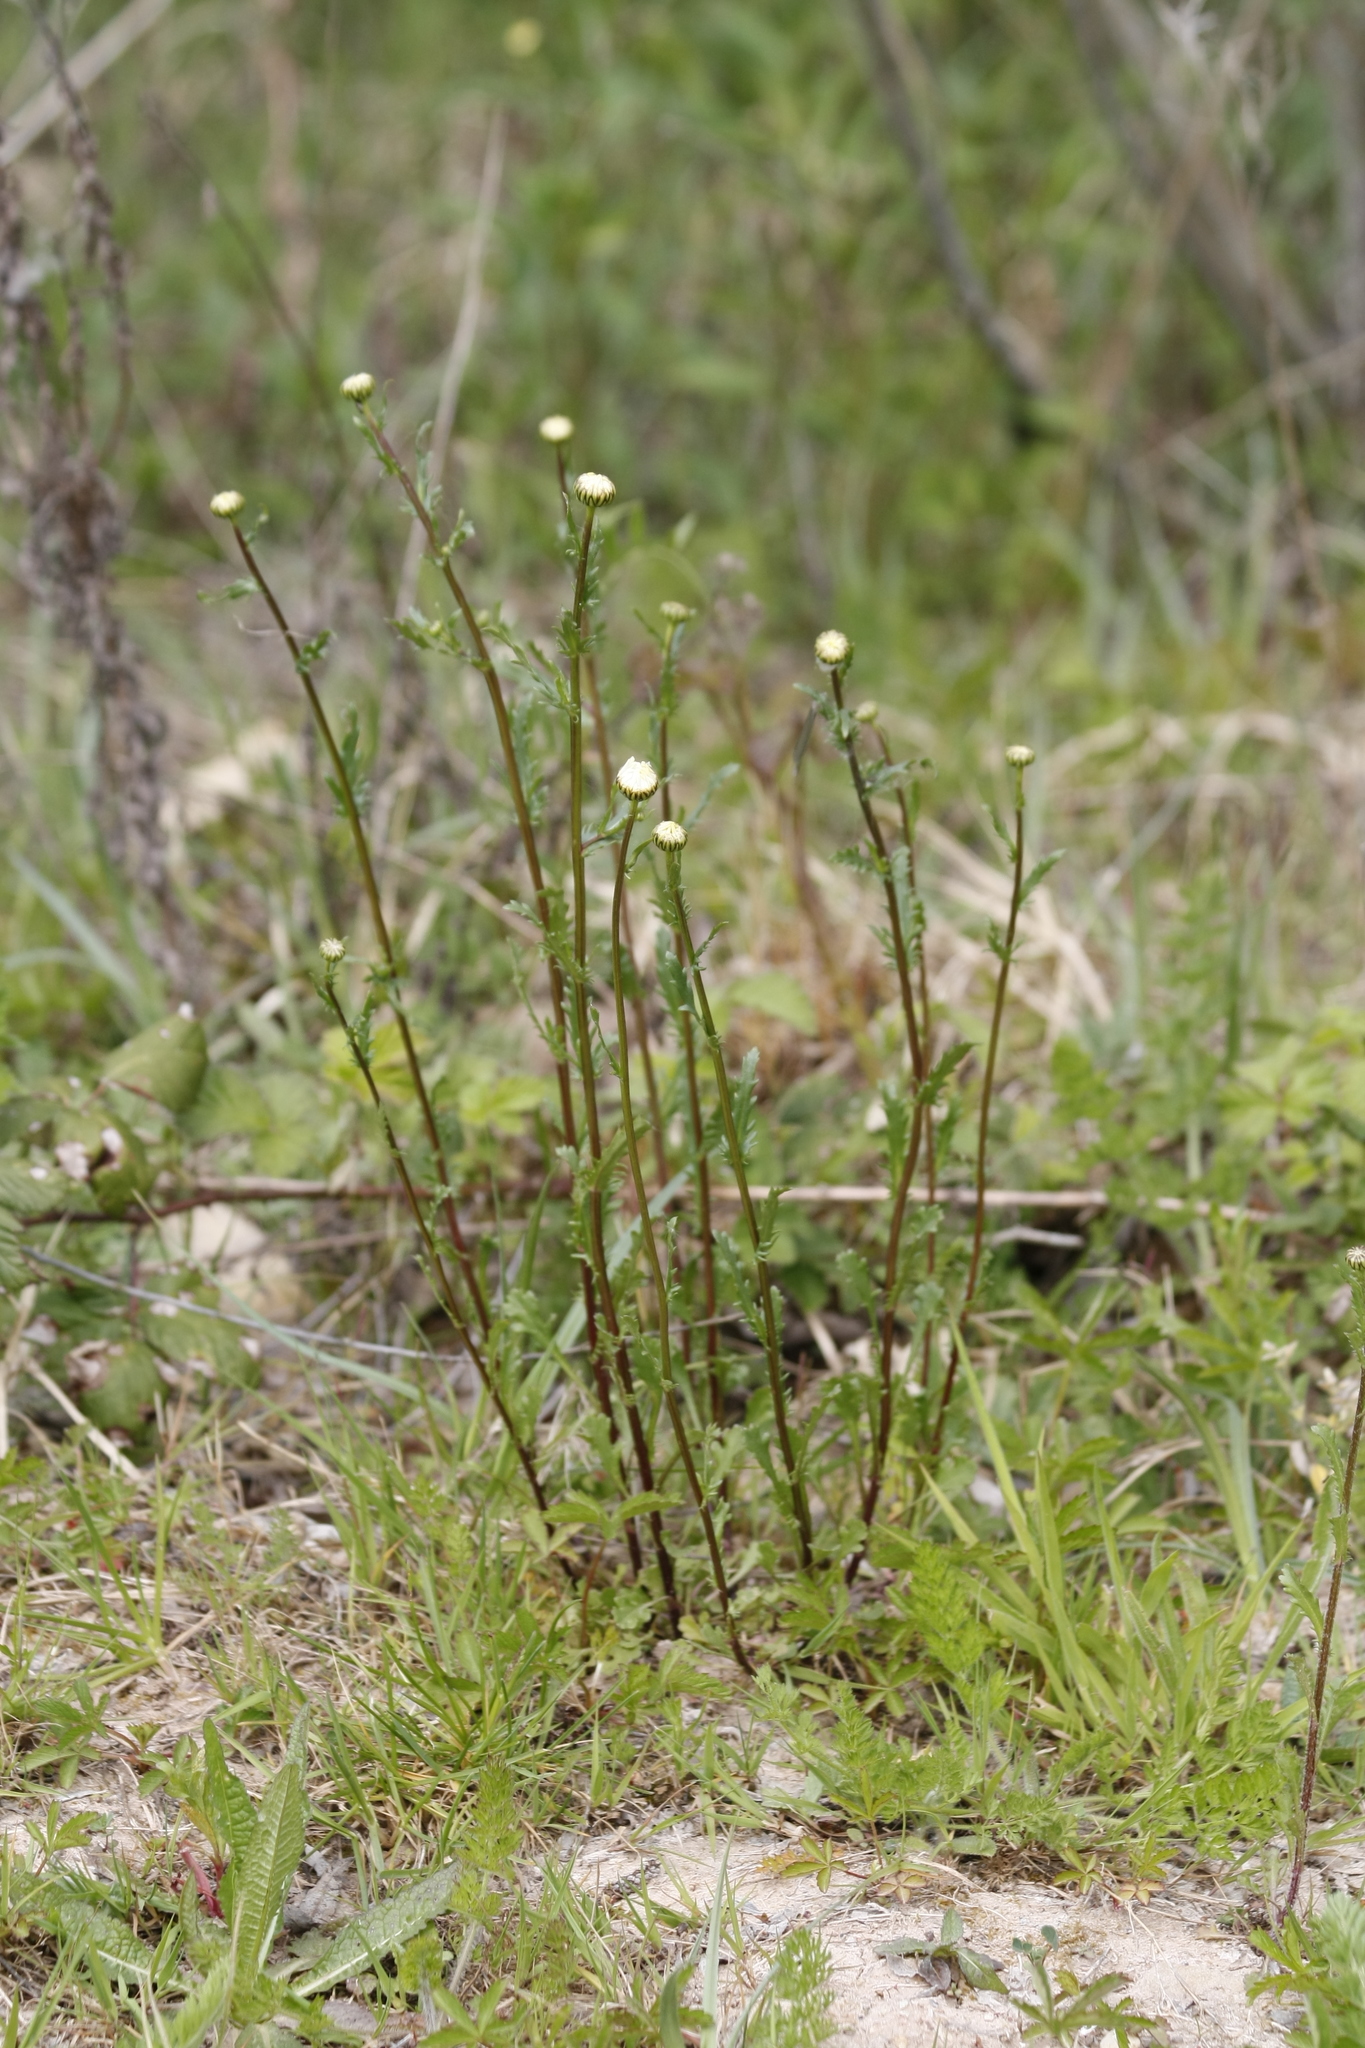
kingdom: Plantae
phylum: Tracheophyta
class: Magnoliopsida
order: Asterales
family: Asteraceae
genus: Leucanthemum
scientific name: Leucanthemum vulgare
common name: Oxeye daisy
